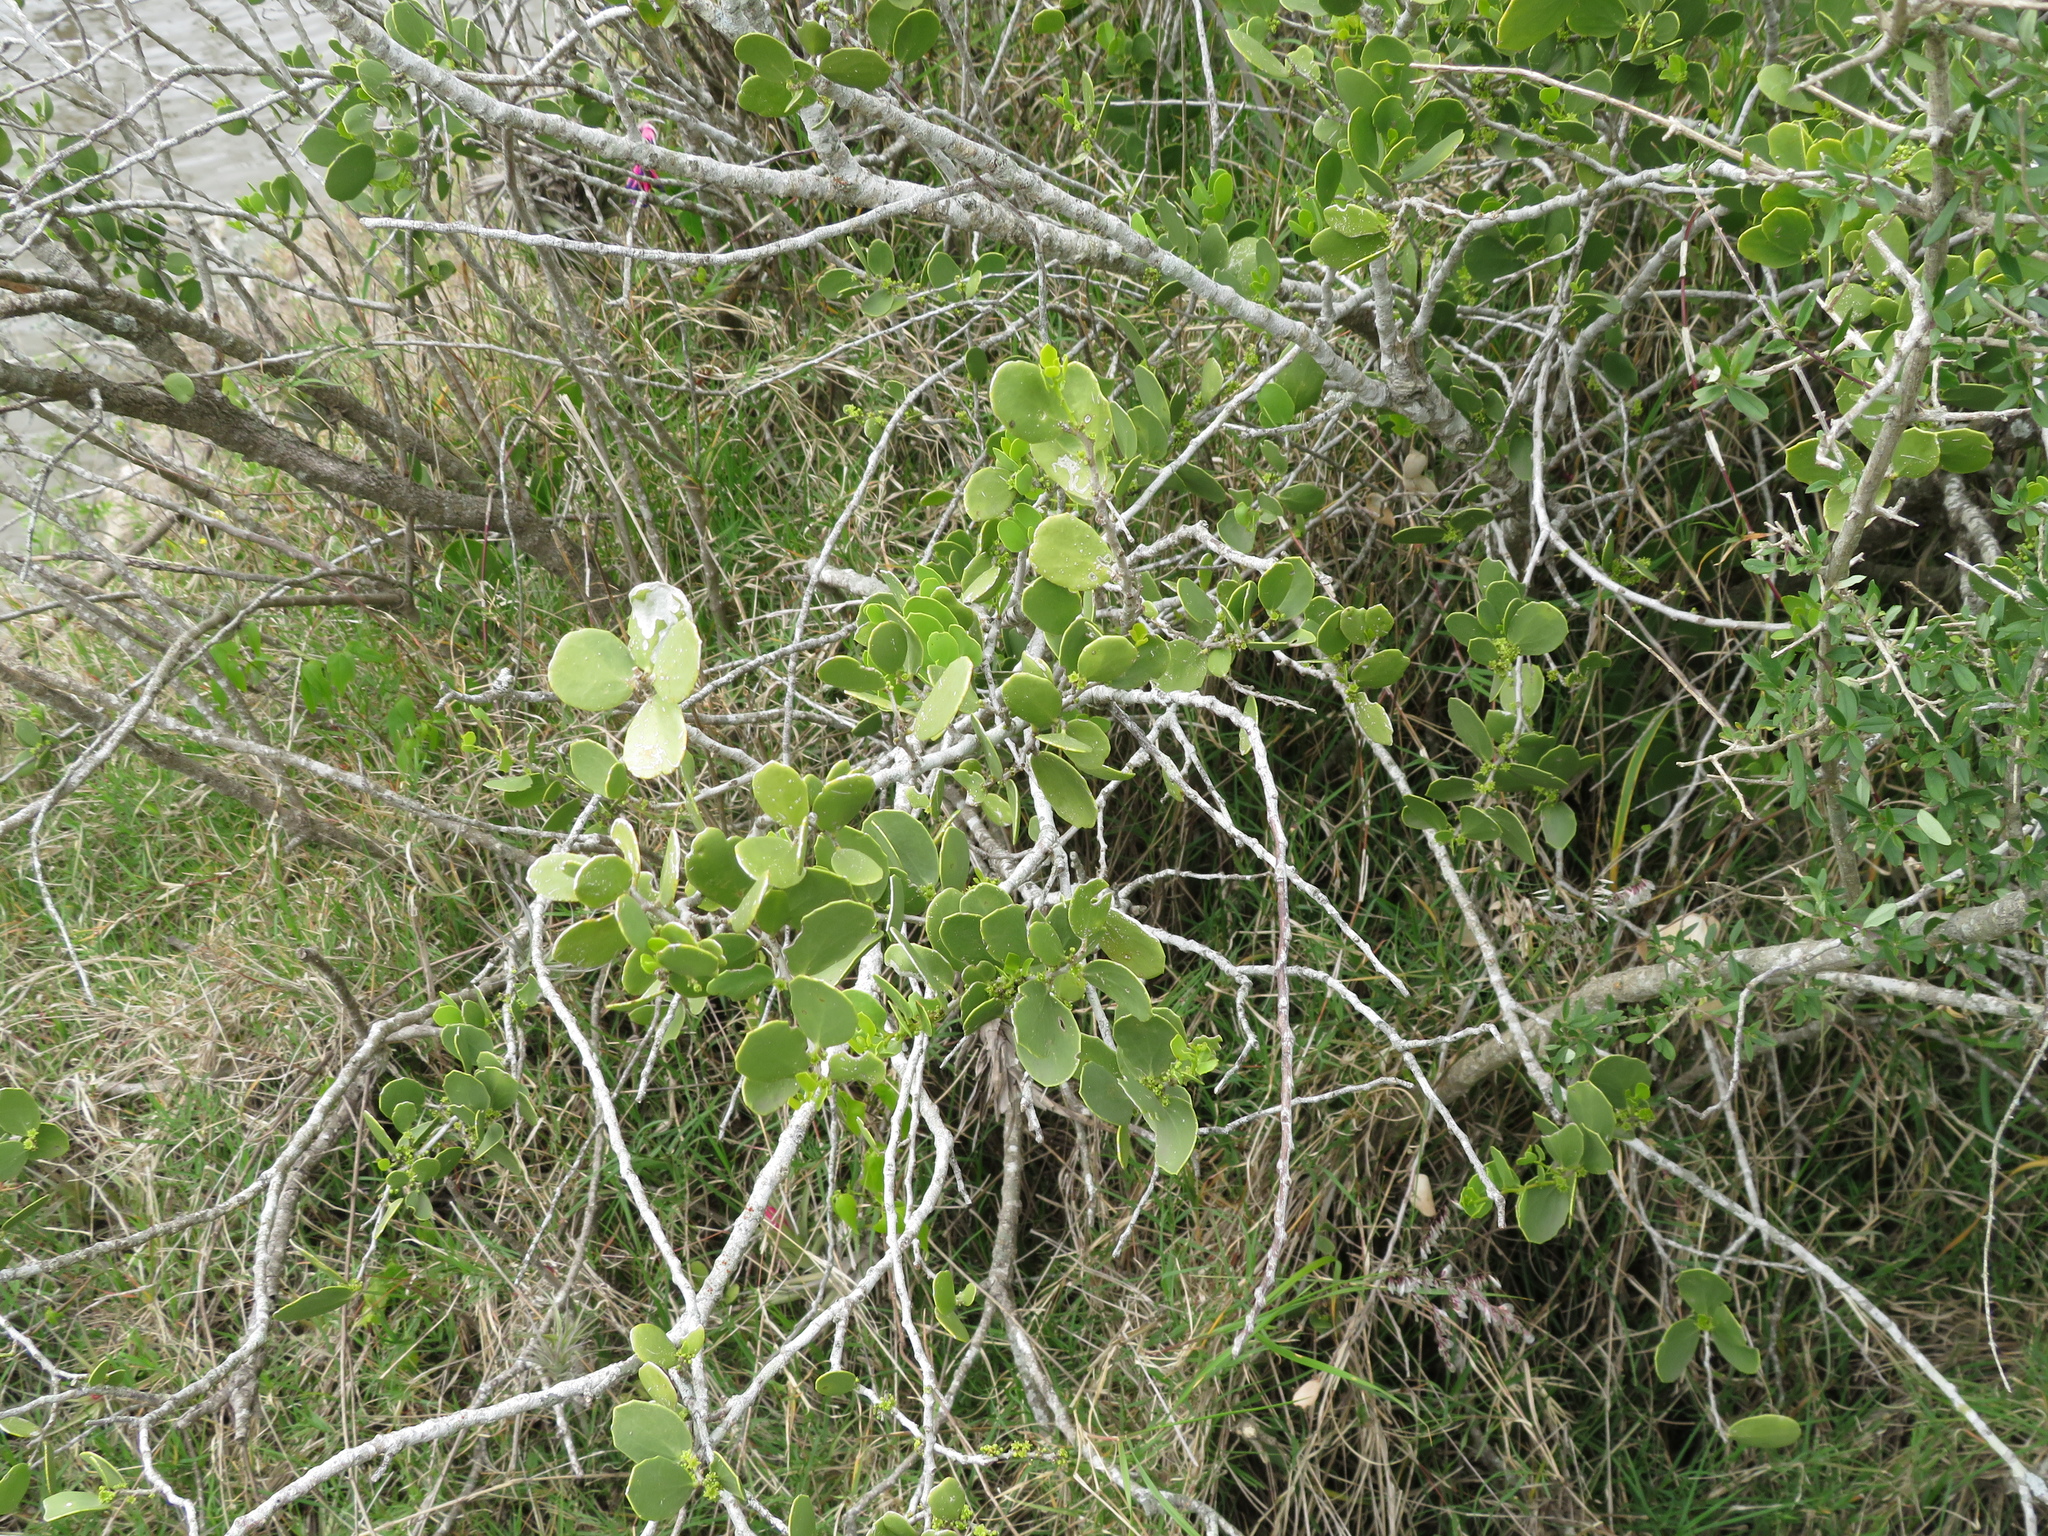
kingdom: Plantae
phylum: Tracheophyta
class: Magnoliopsida
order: Celastrales
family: Celastraceae
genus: Tricerma
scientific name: Tricerma vitis-idaeum
